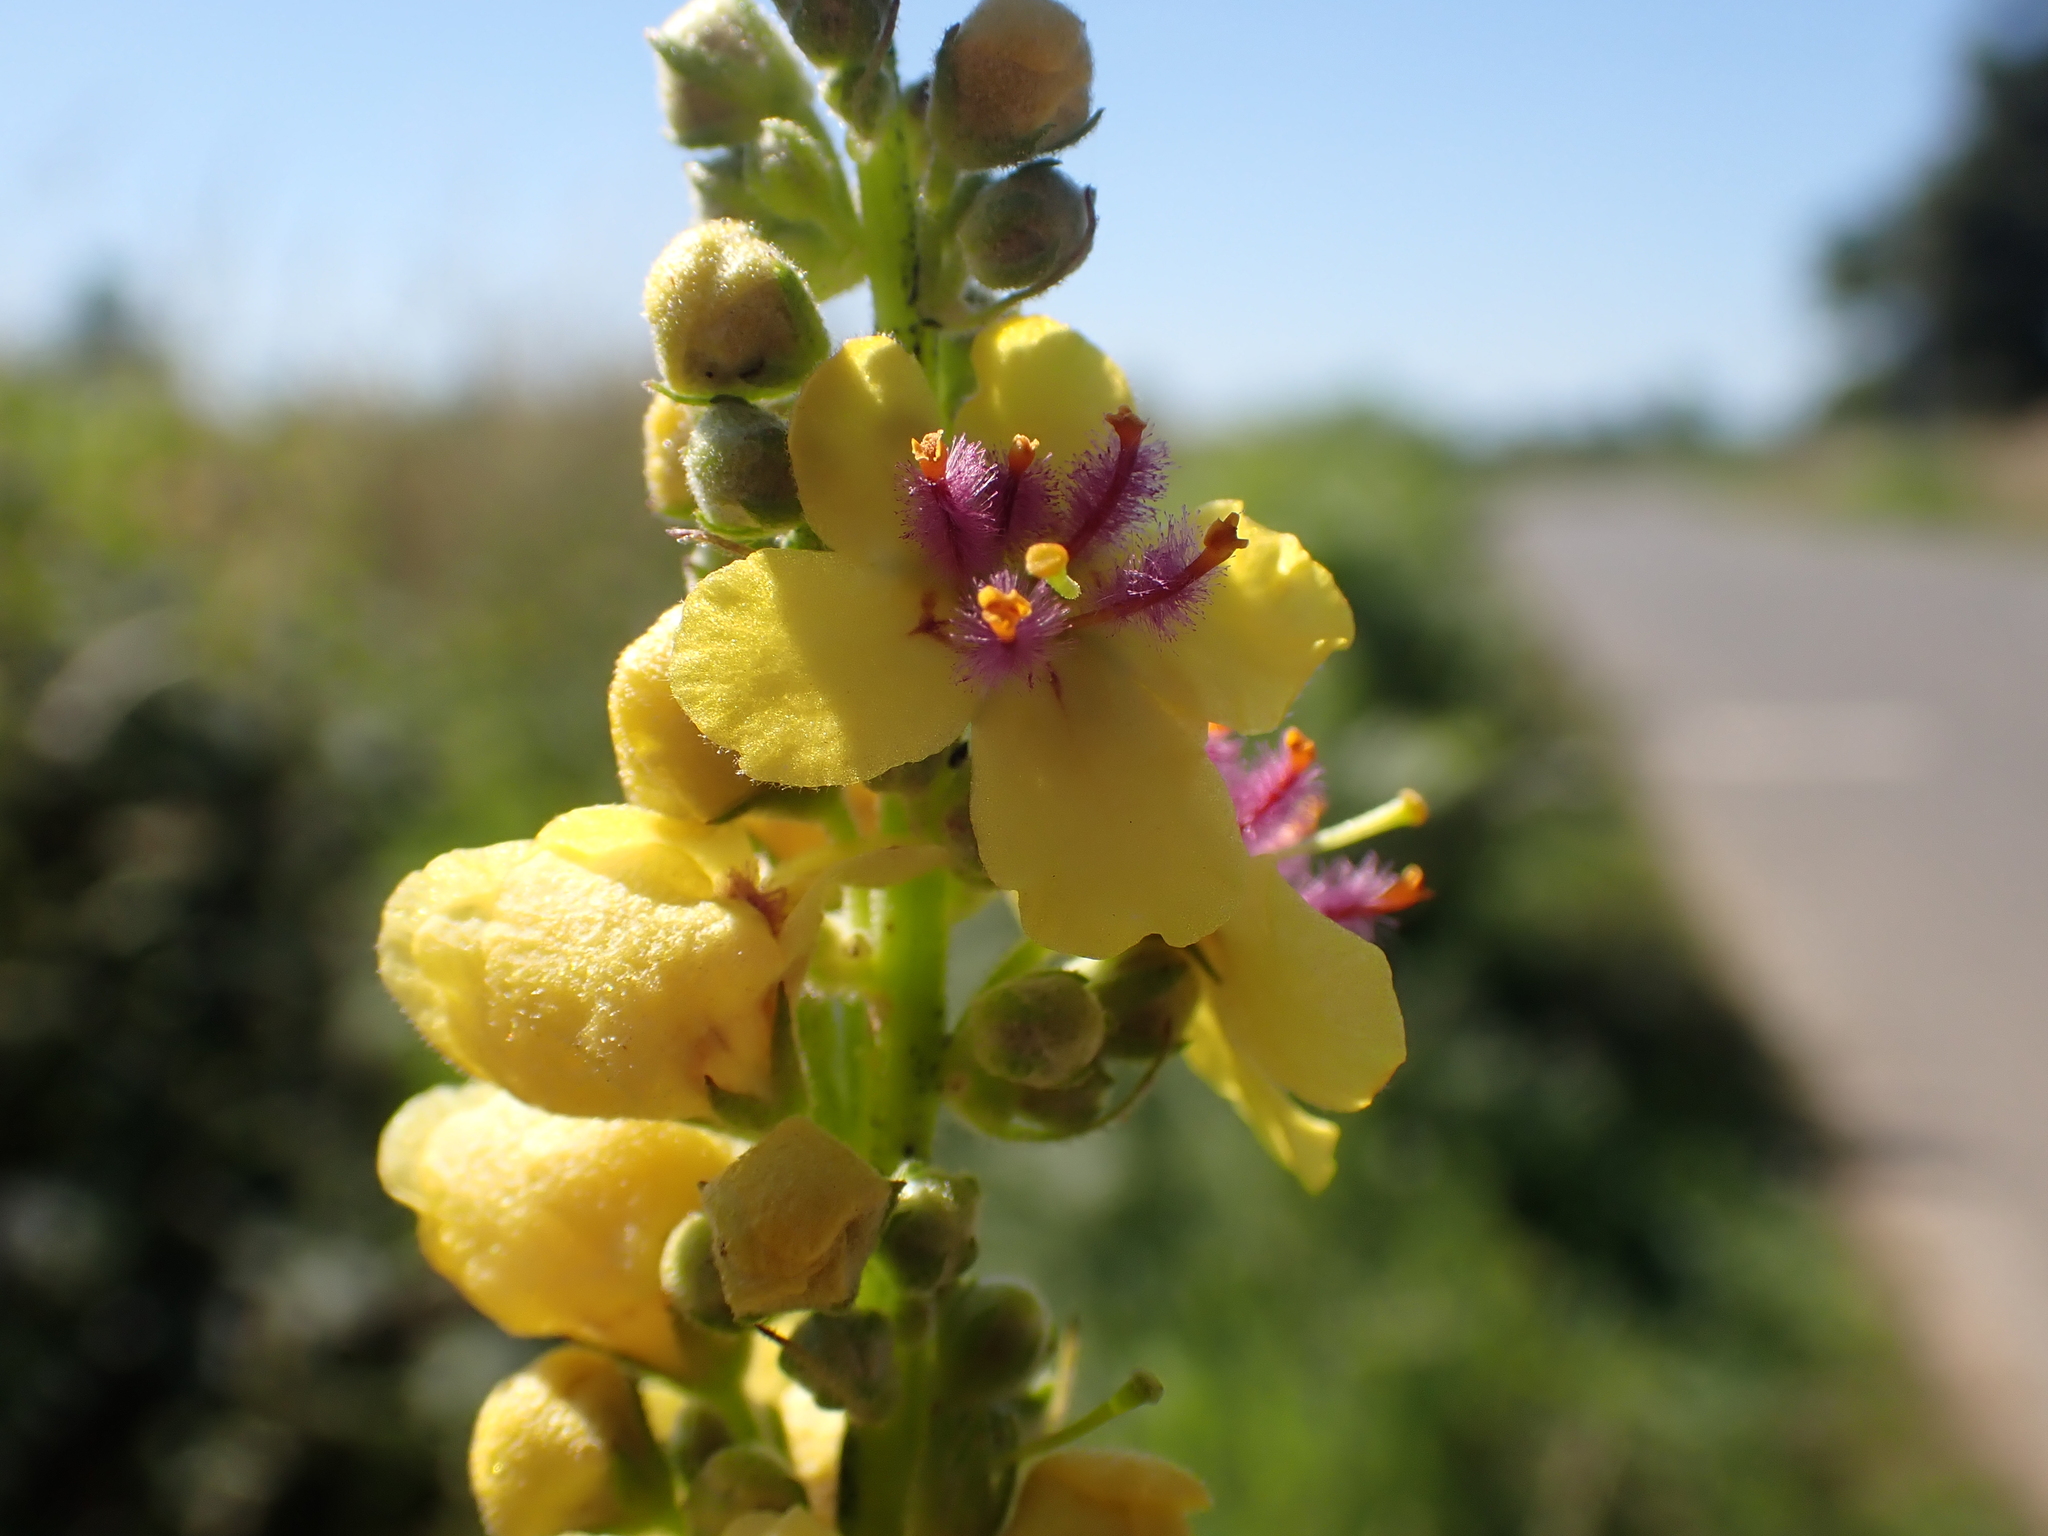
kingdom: Plantae
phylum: Tracheophyta
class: Magnoliopsida
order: Lamiales
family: Scrophulariaceae
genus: Verbascum
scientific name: Verbascum nigrum
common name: Dark mullein
